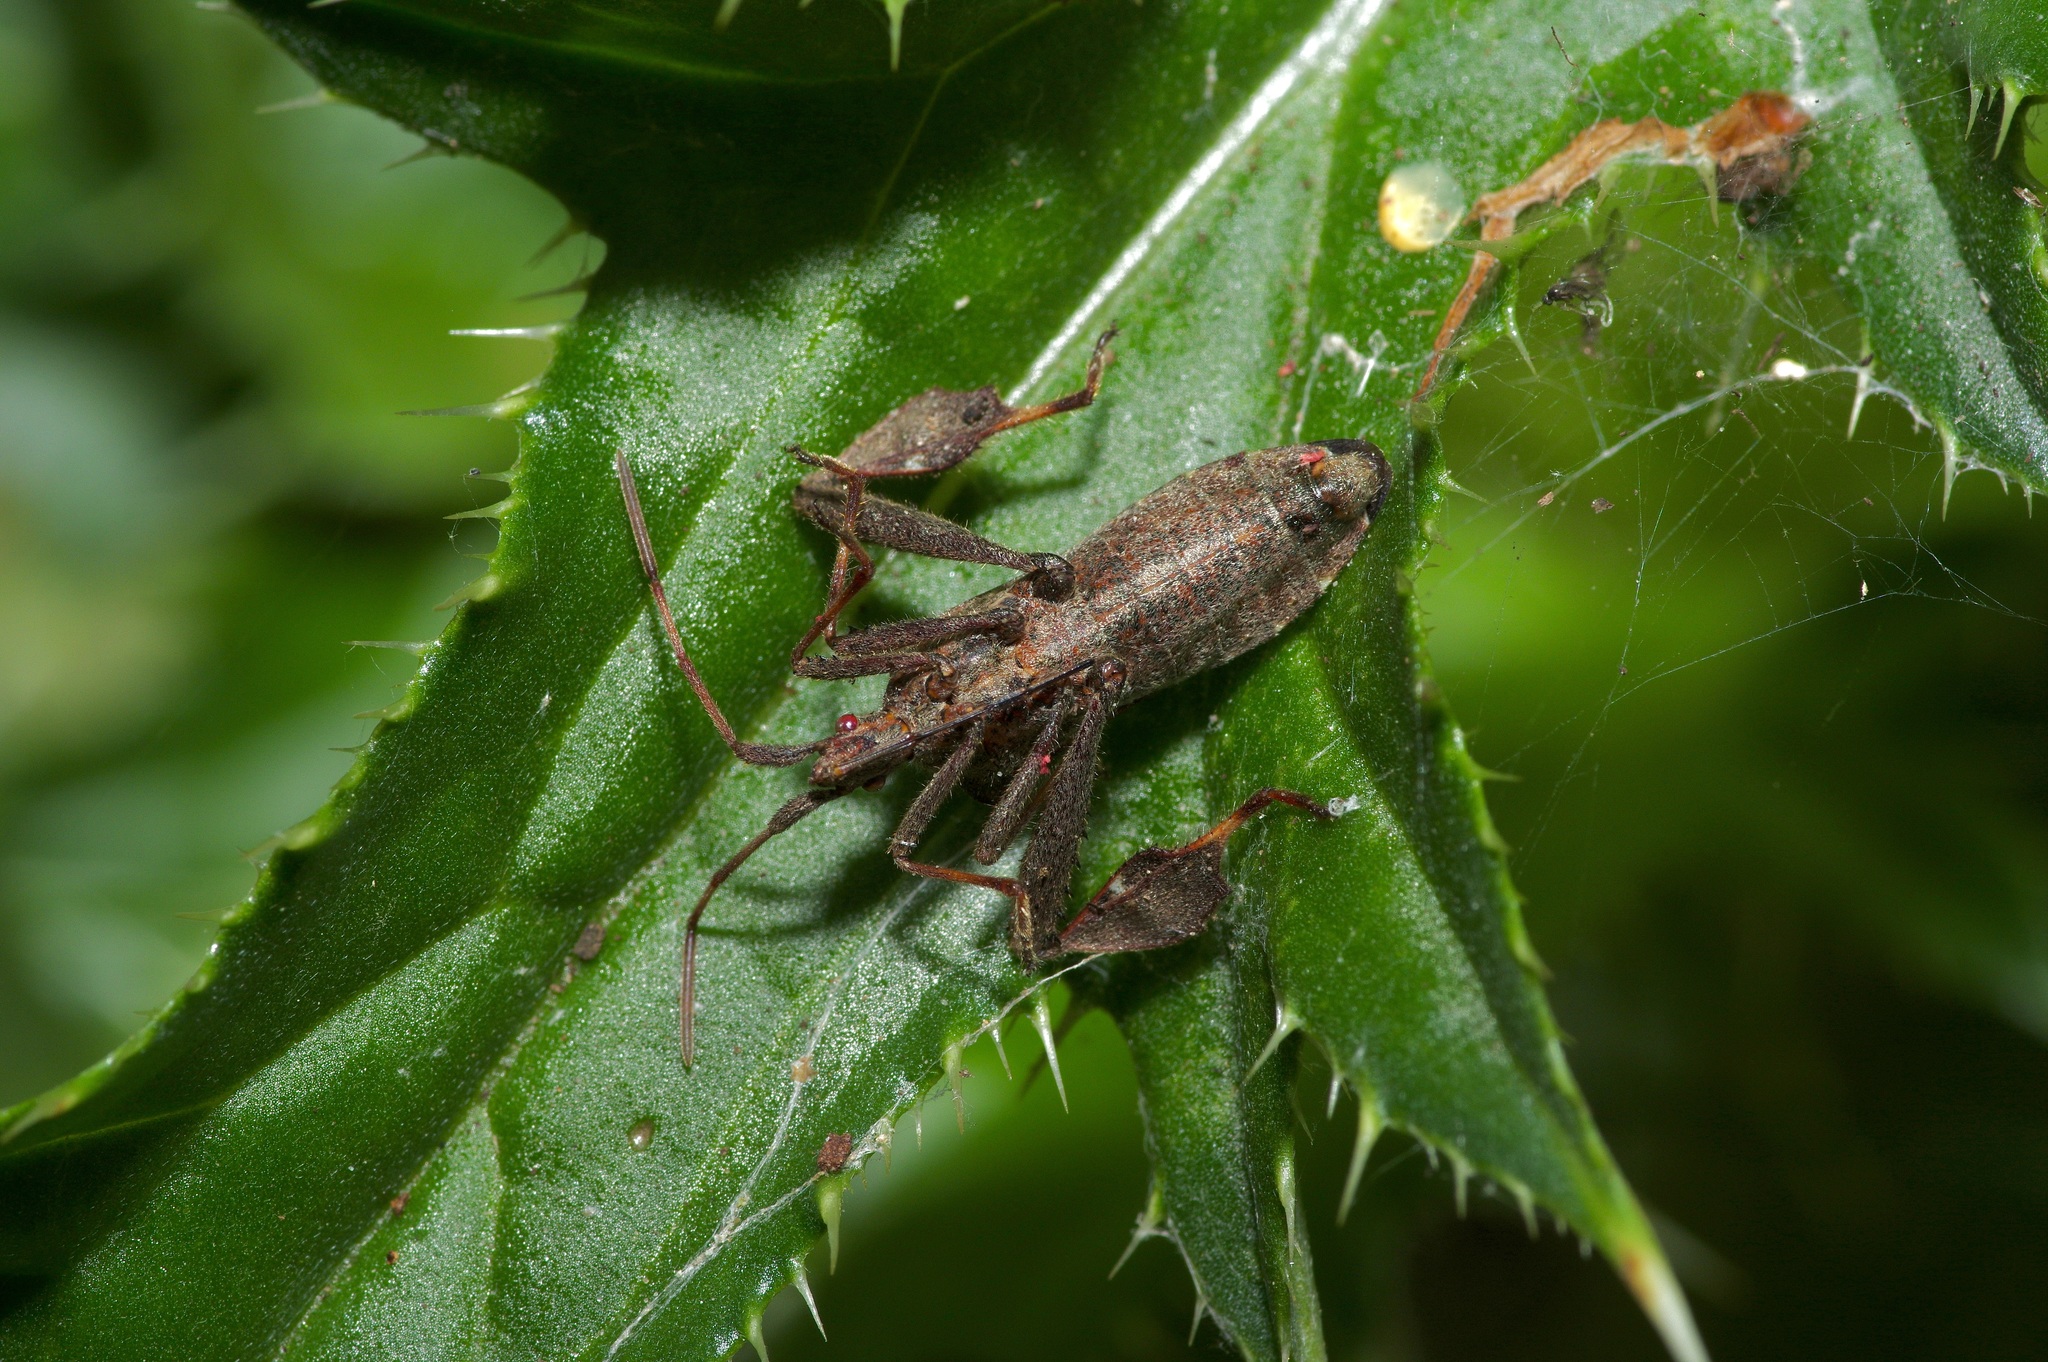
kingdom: Animalia
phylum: Arthropoda
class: Insecta
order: Hemiptera
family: Coreidae
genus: Leptoglossus
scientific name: Leptoglossus phyllopus
